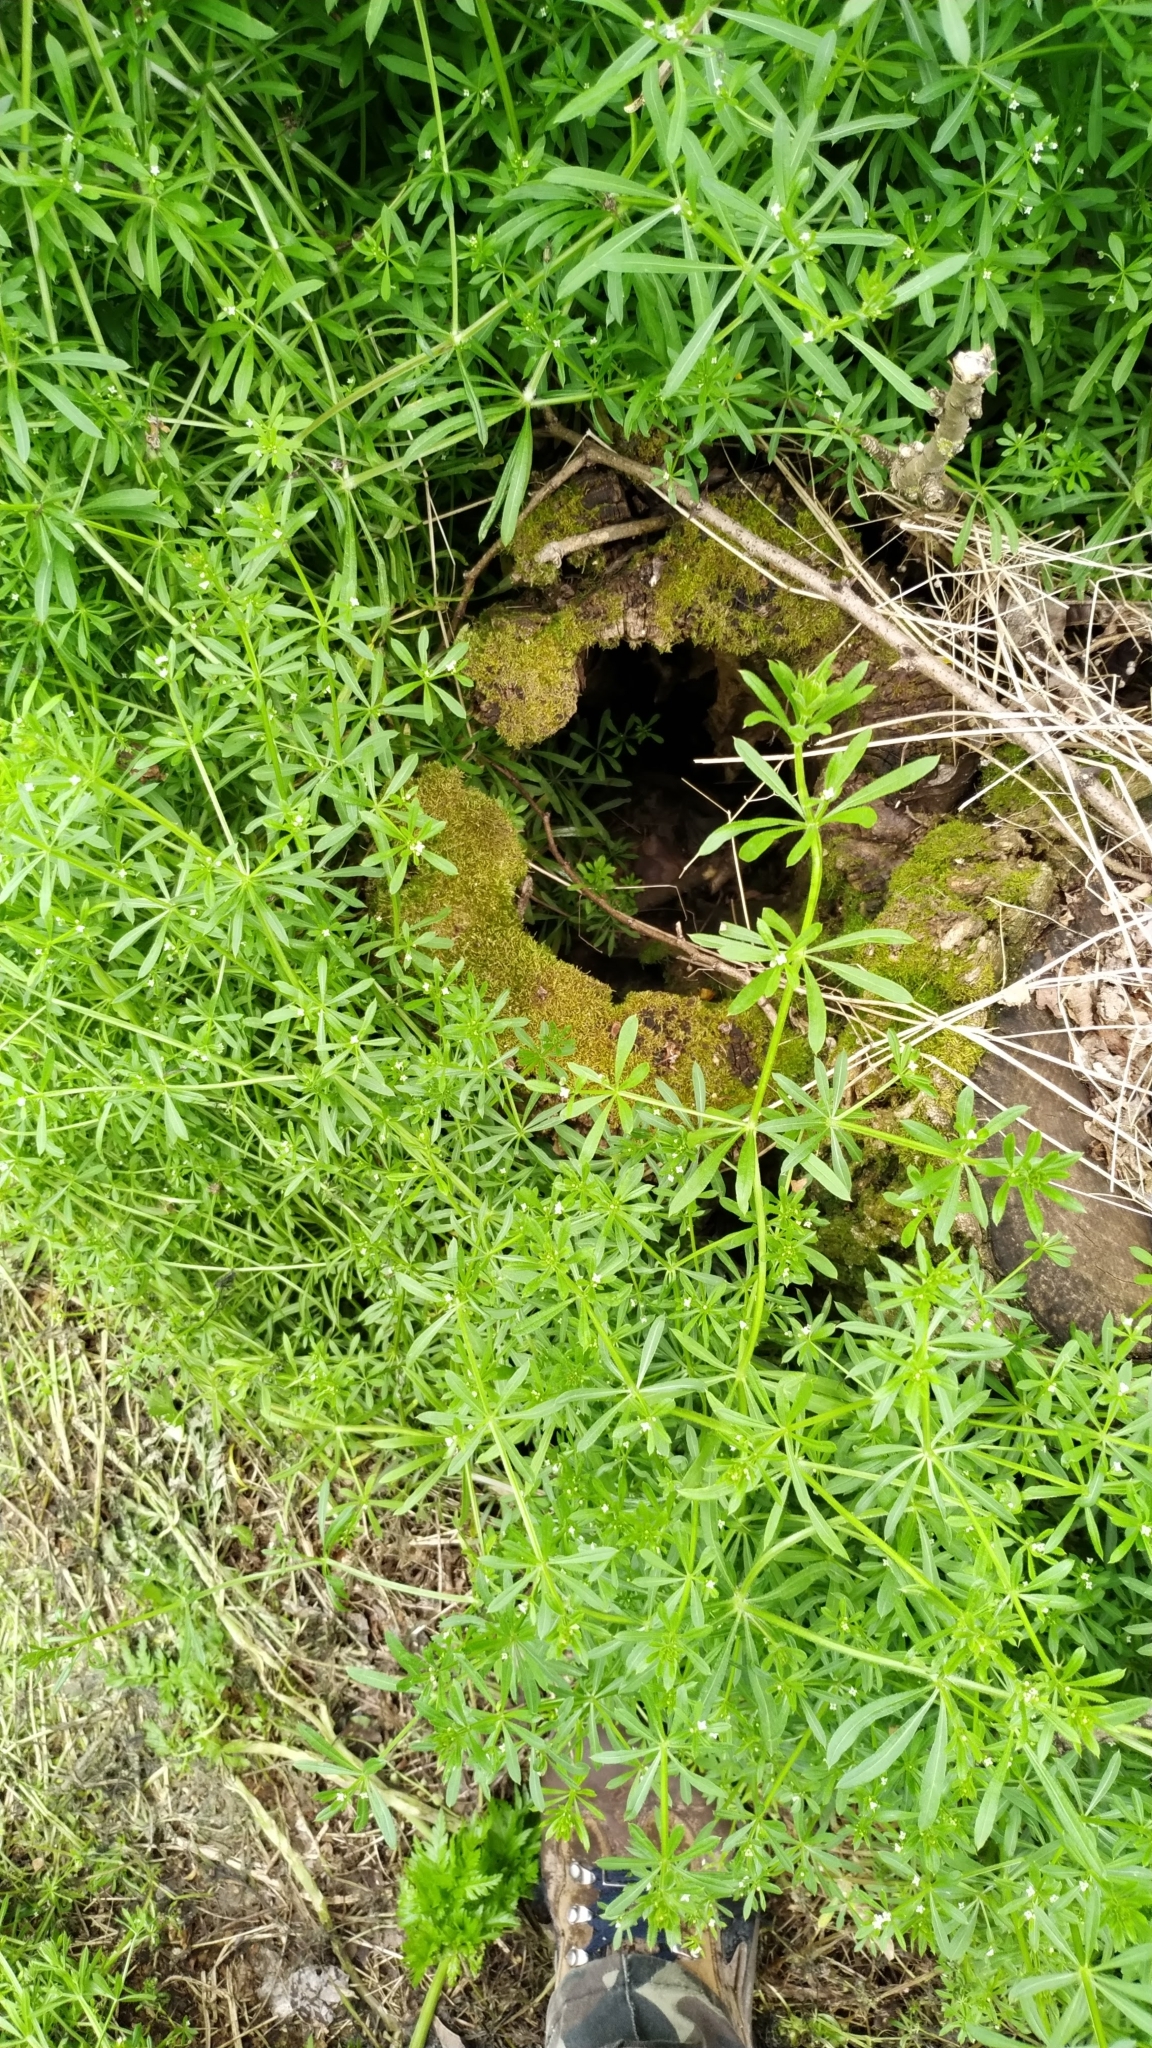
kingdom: Plantae
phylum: Tracheophyta
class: Magnoliopsida
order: Gentianales
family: Rubiaceae
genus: Galium
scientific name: Galium aparine
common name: Cleavers
